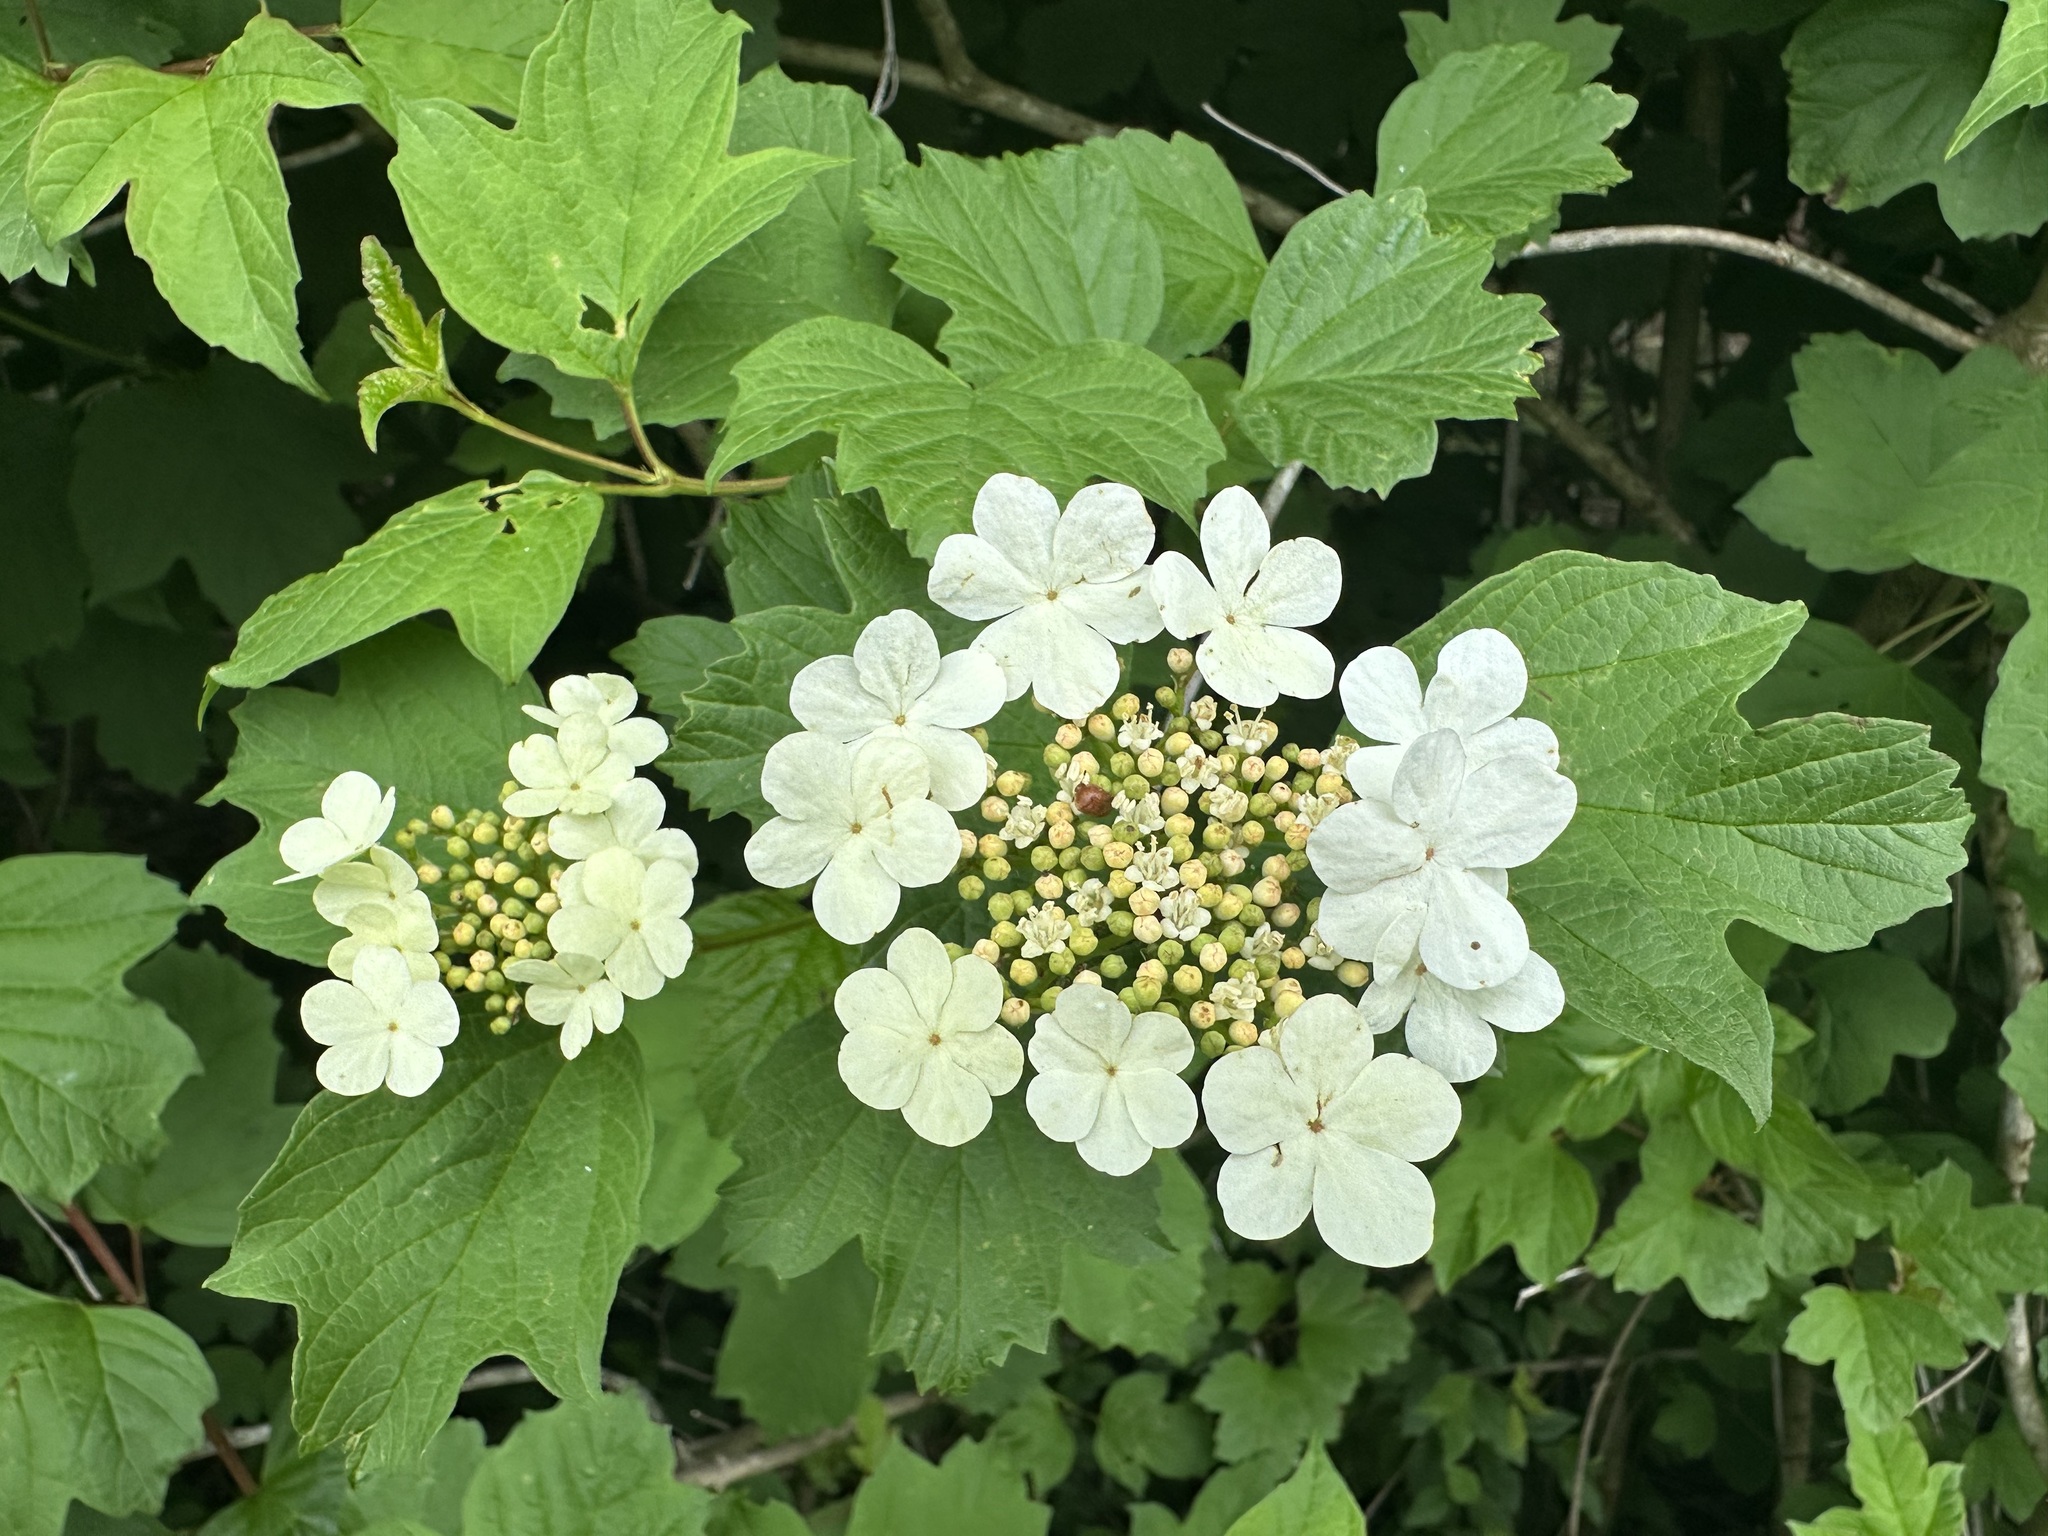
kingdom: Plantae
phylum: Tracheophyta
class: Magnoliopsida
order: Dipsacales
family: Viburnaceae
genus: Viburnum
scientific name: Viburnum opulus
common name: Guelder-rose
